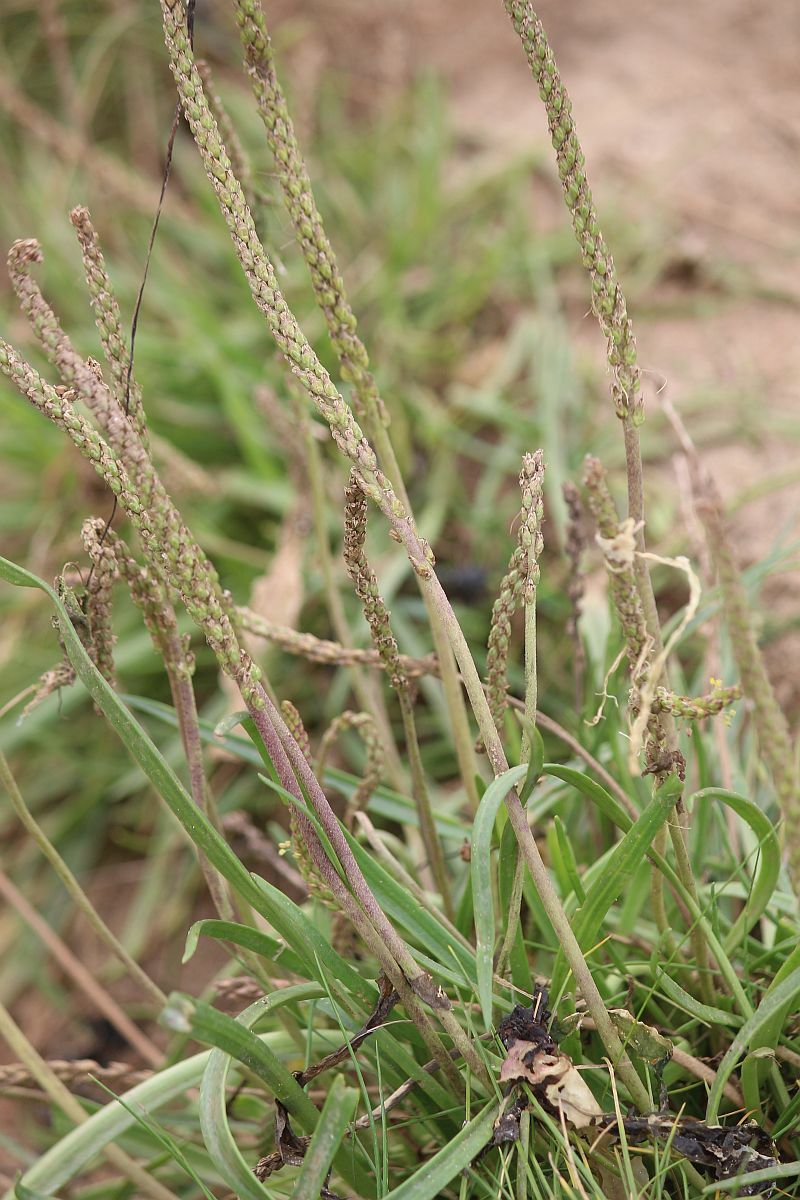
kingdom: Plantae
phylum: Tracheophyta
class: Magnoliopsida
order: Lamiales
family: Plantaginaceae
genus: Plantago
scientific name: Plantago maritima
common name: Sea plantain
